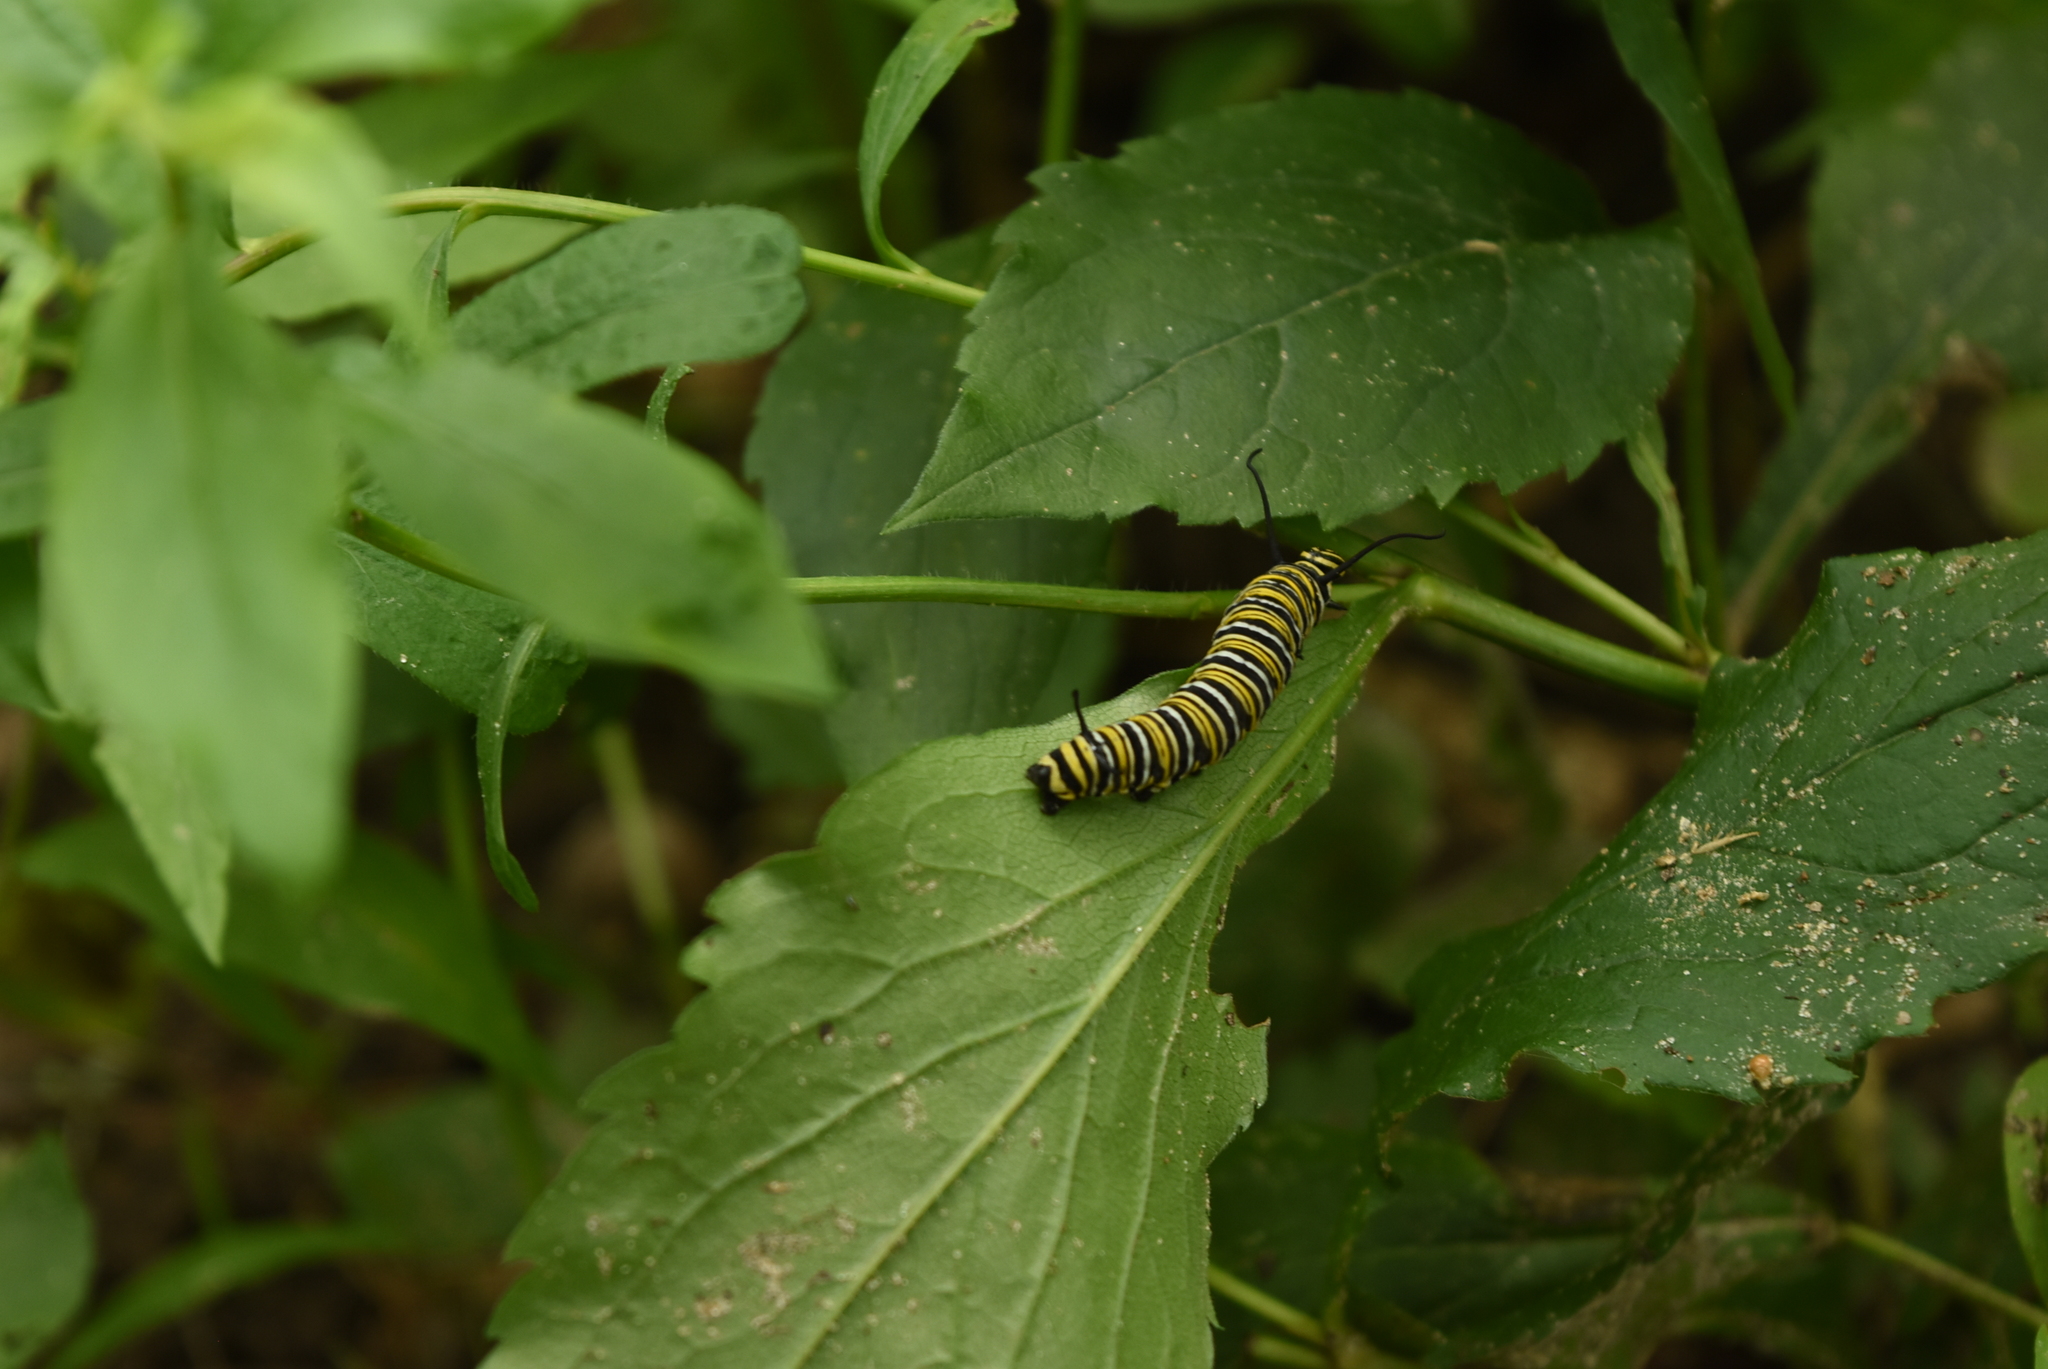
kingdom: Animalia
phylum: Arthropoda
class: Insecta
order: Lepidoptera
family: Nymphalidae
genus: Danaus
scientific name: Danaus plexippus
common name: Monarch
